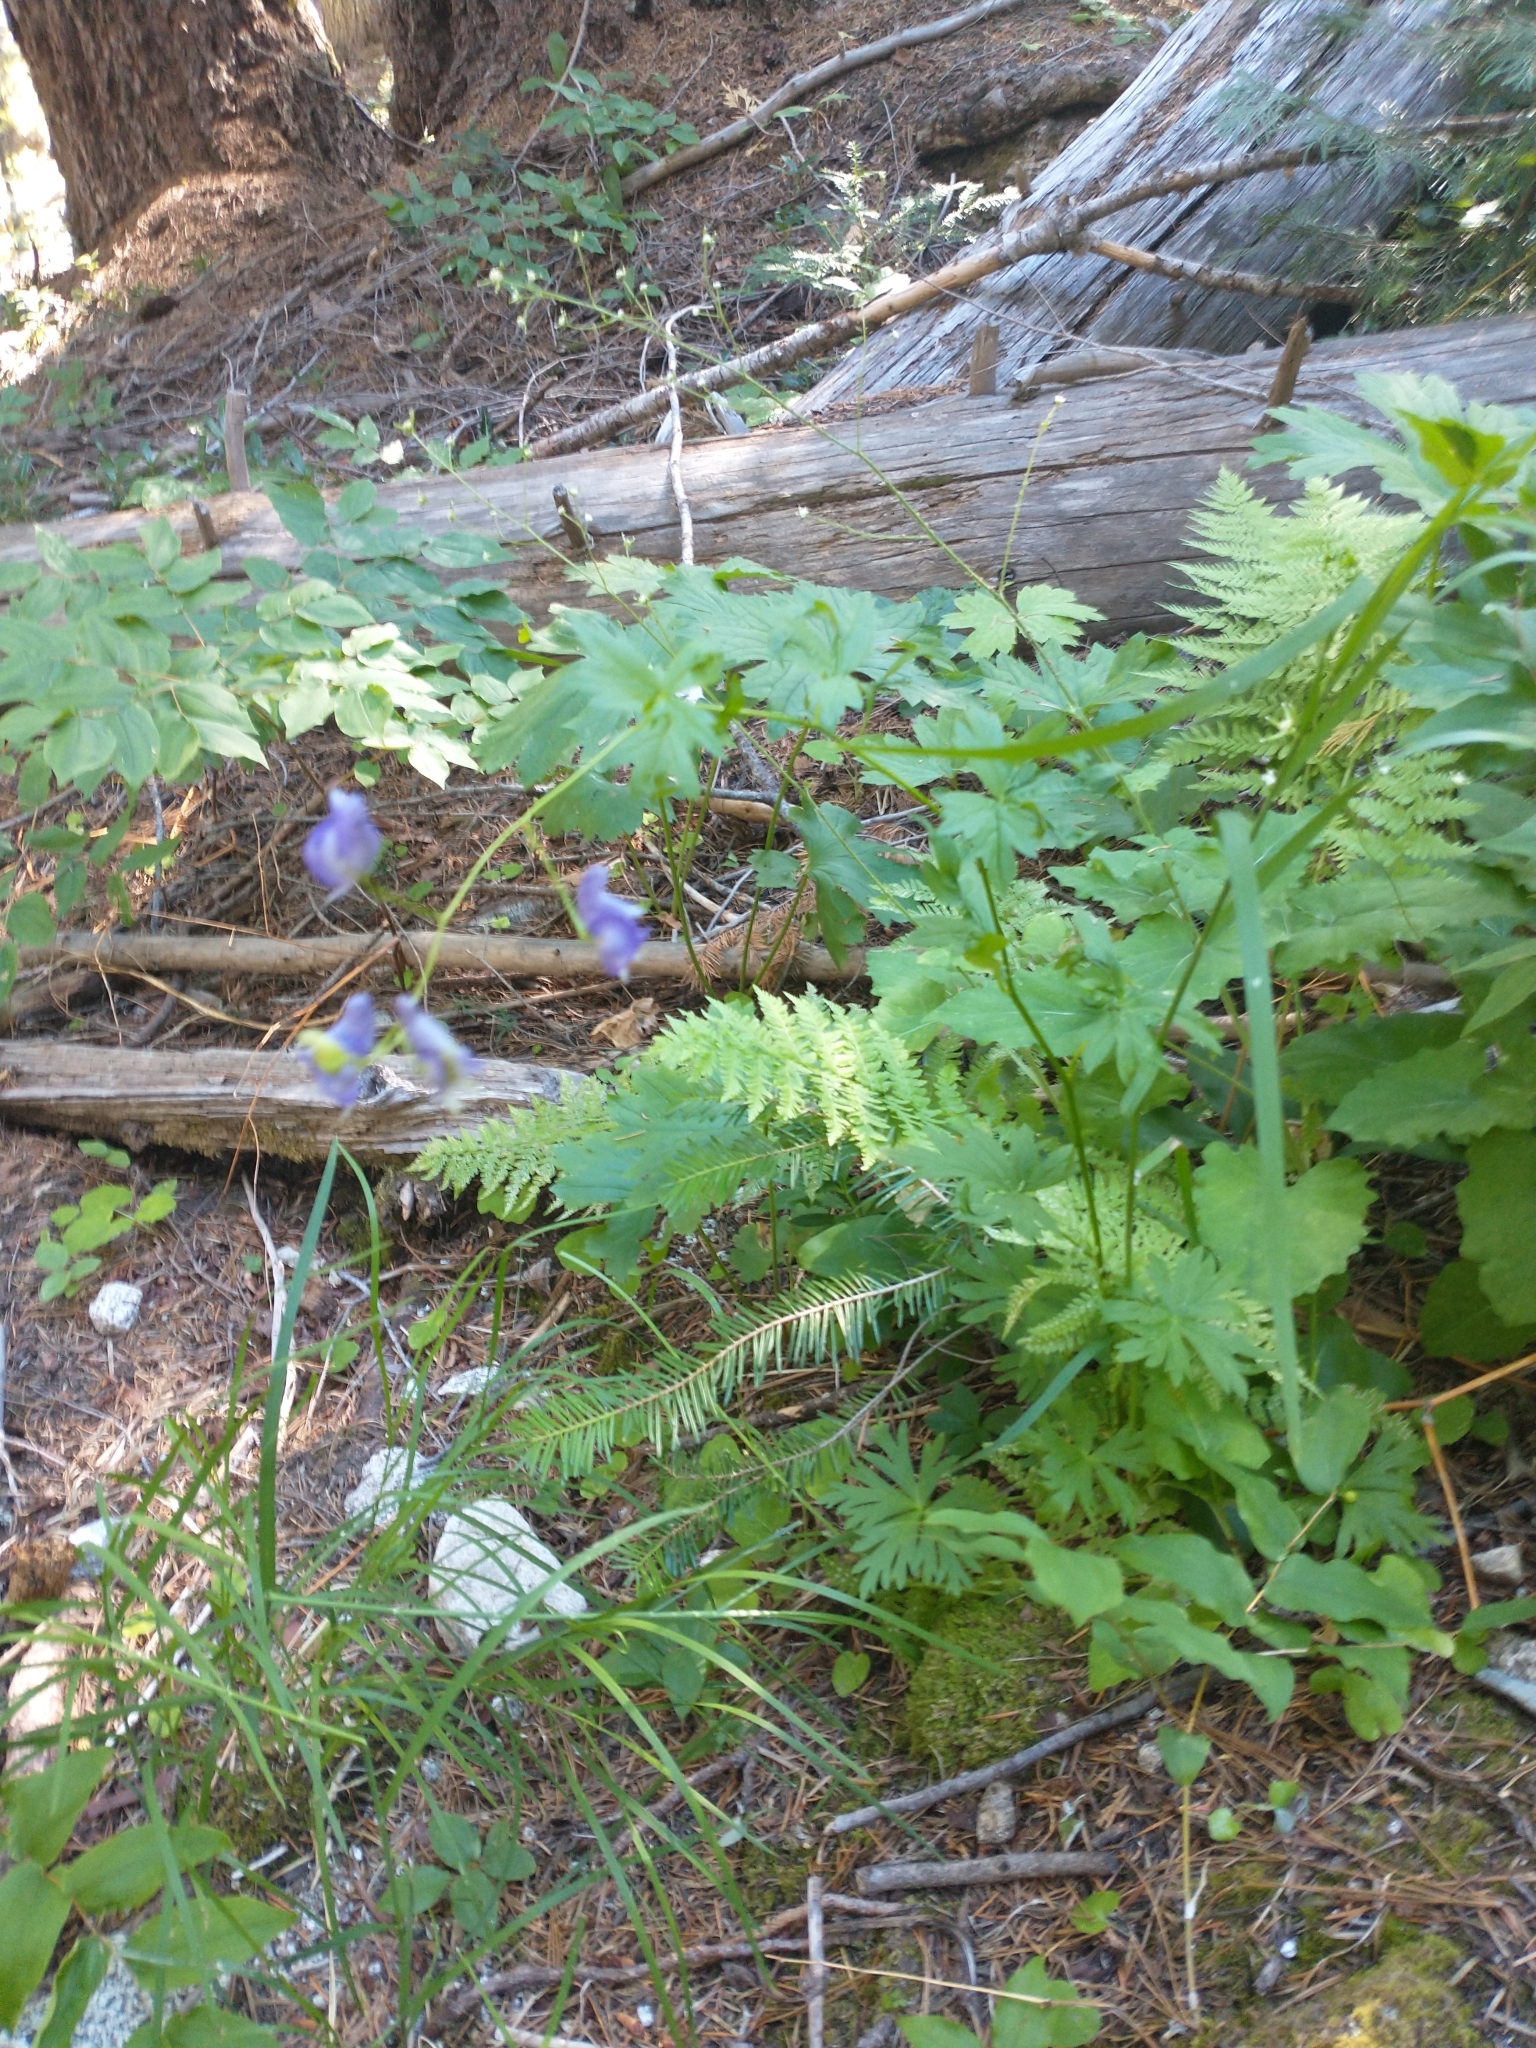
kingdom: Plantae
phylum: Tracheophyta
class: Magnoliopsida
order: Ranunculales
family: Ranunculaceae
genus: Aconitum
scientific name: Aconitum columbianum
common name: Columbia aconite
